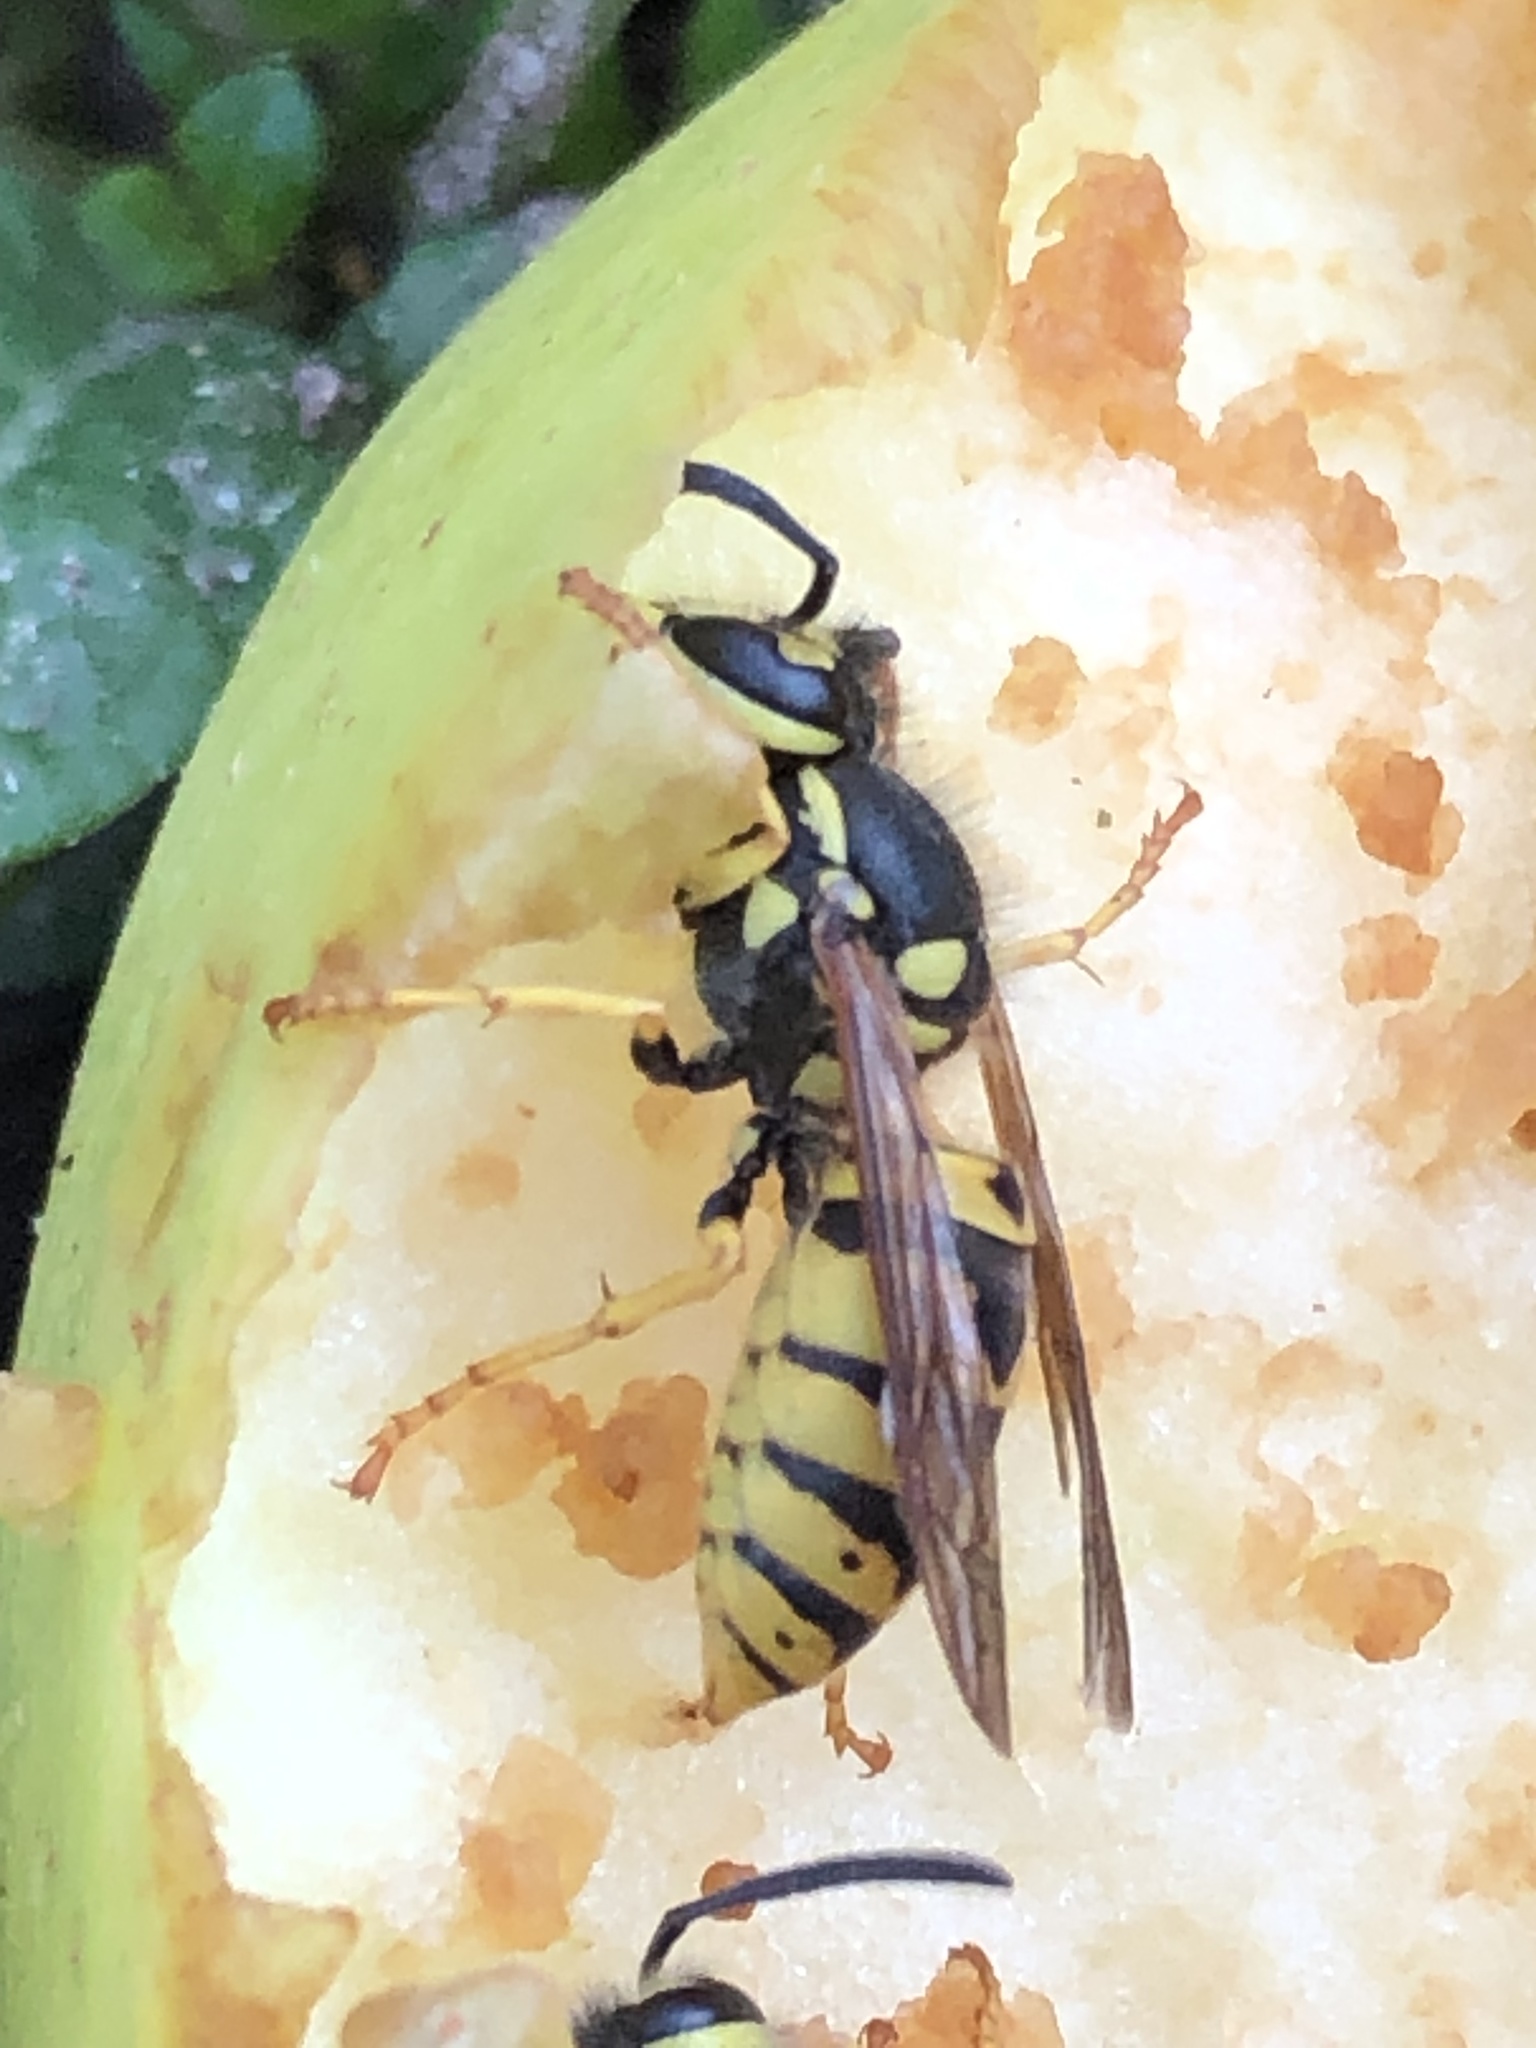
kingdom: Animalia
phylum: Arthropoda
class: Insecta
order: Hymenoptera
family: Vespidae
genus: Vespula
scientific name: Vespula germanica
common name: German wasp
